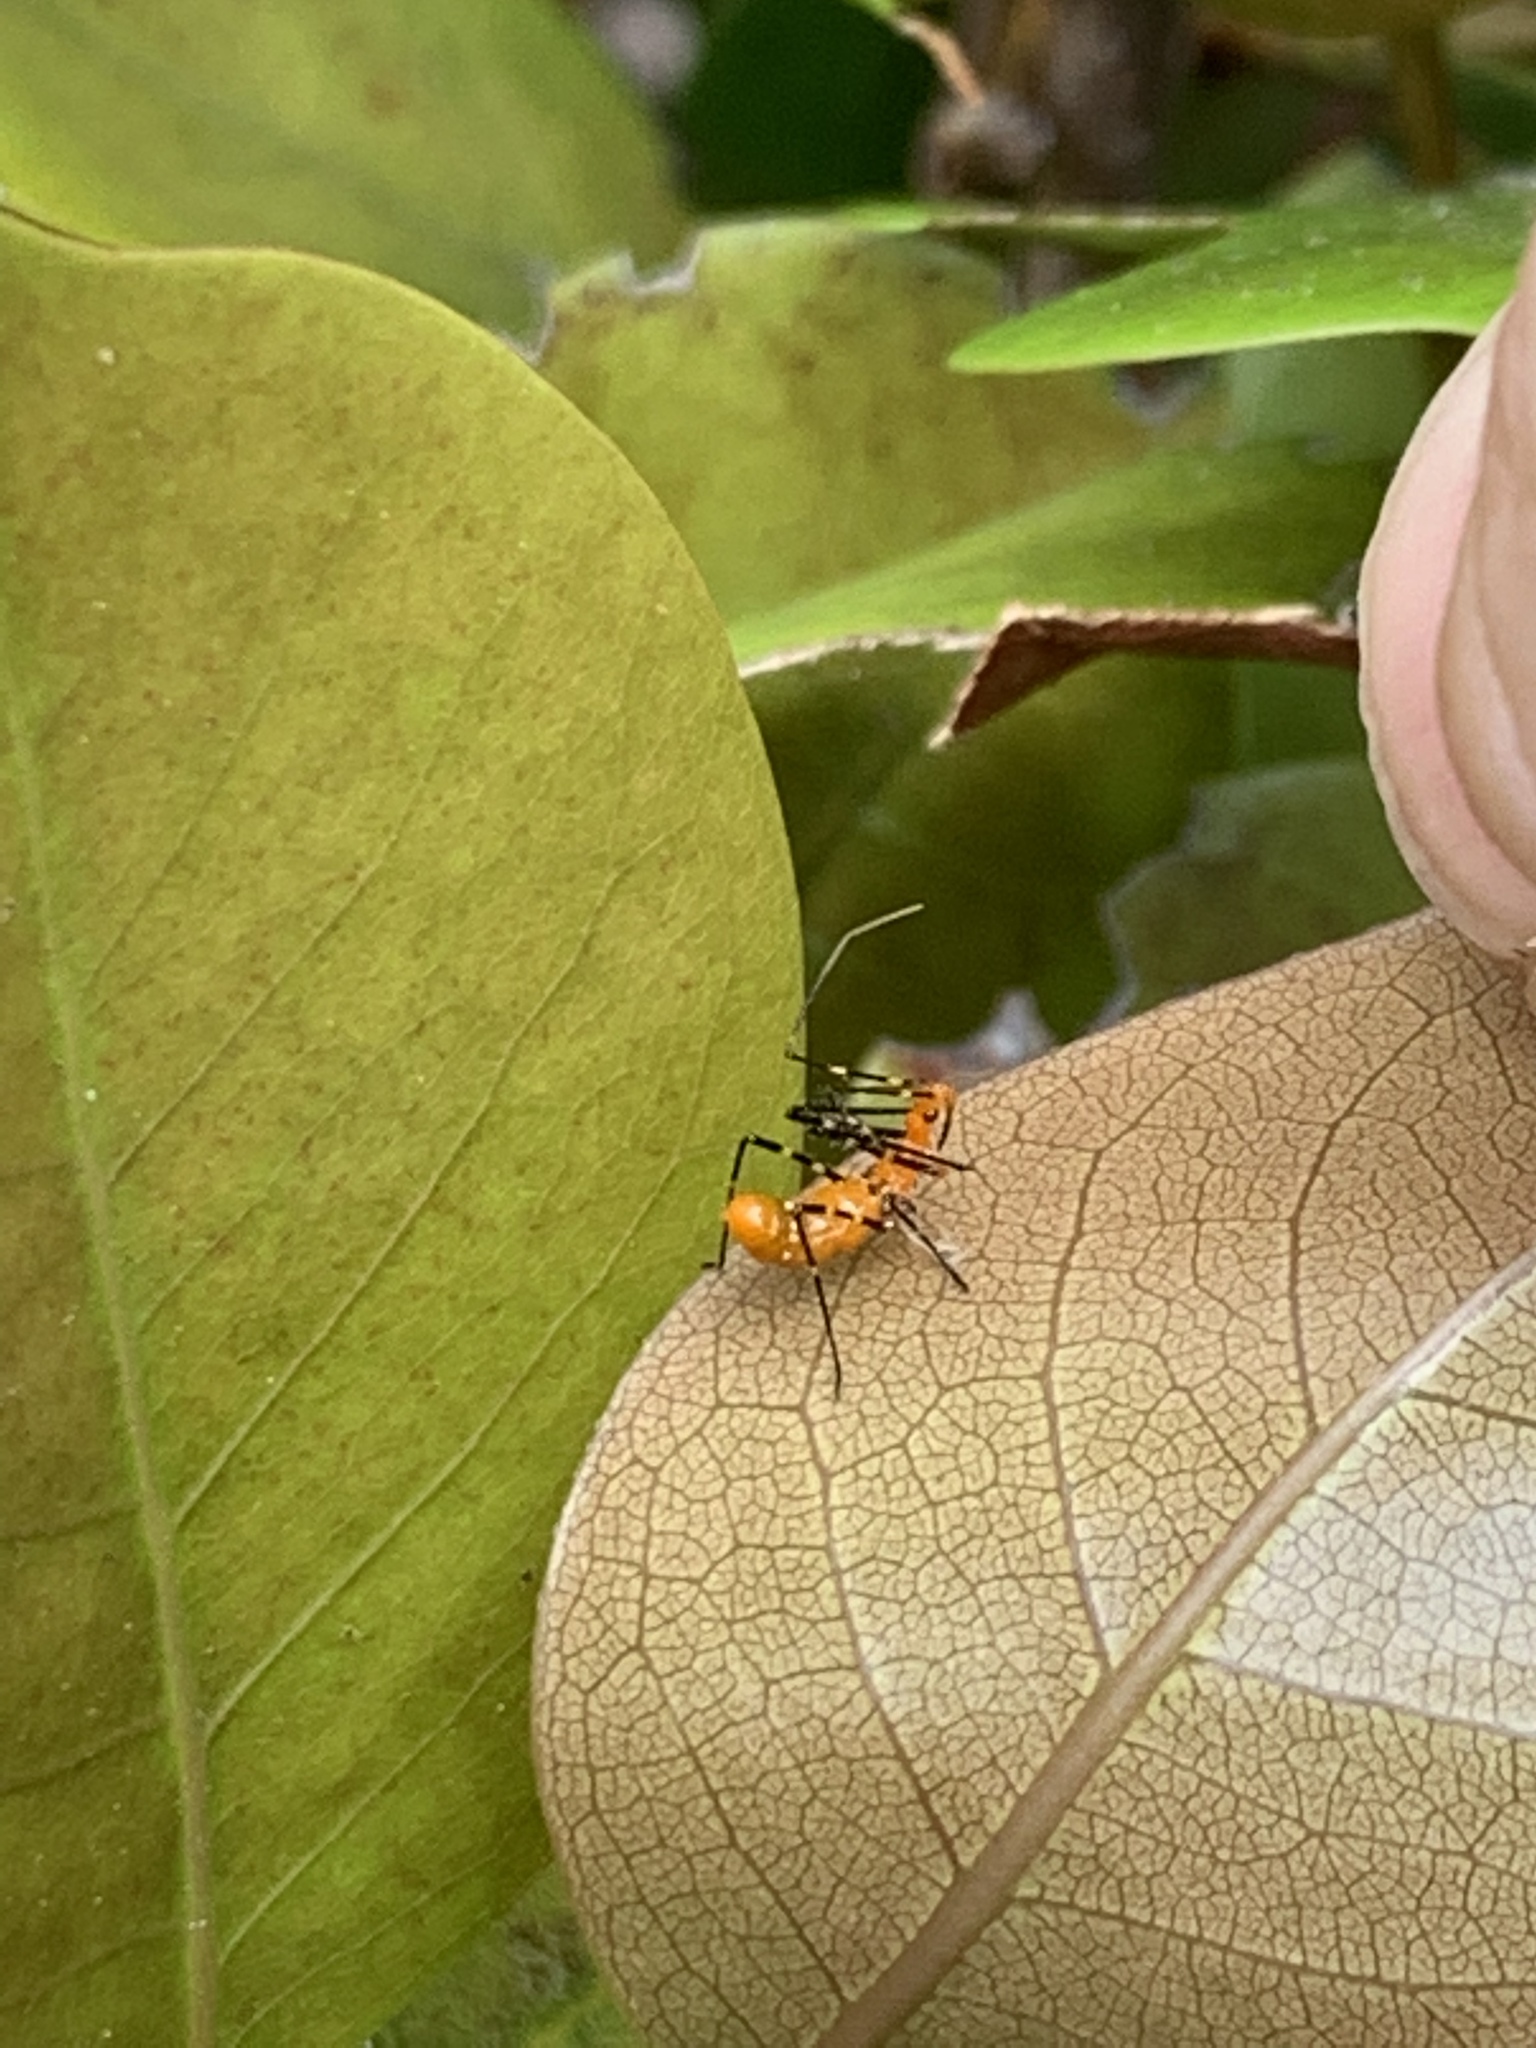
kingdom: Animalia
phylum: Arthropoda
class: Insecta
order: Hemiptera
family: Reduviidae
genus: Zelus
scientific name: Zelus longipes
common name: Milkweed assassin bug
